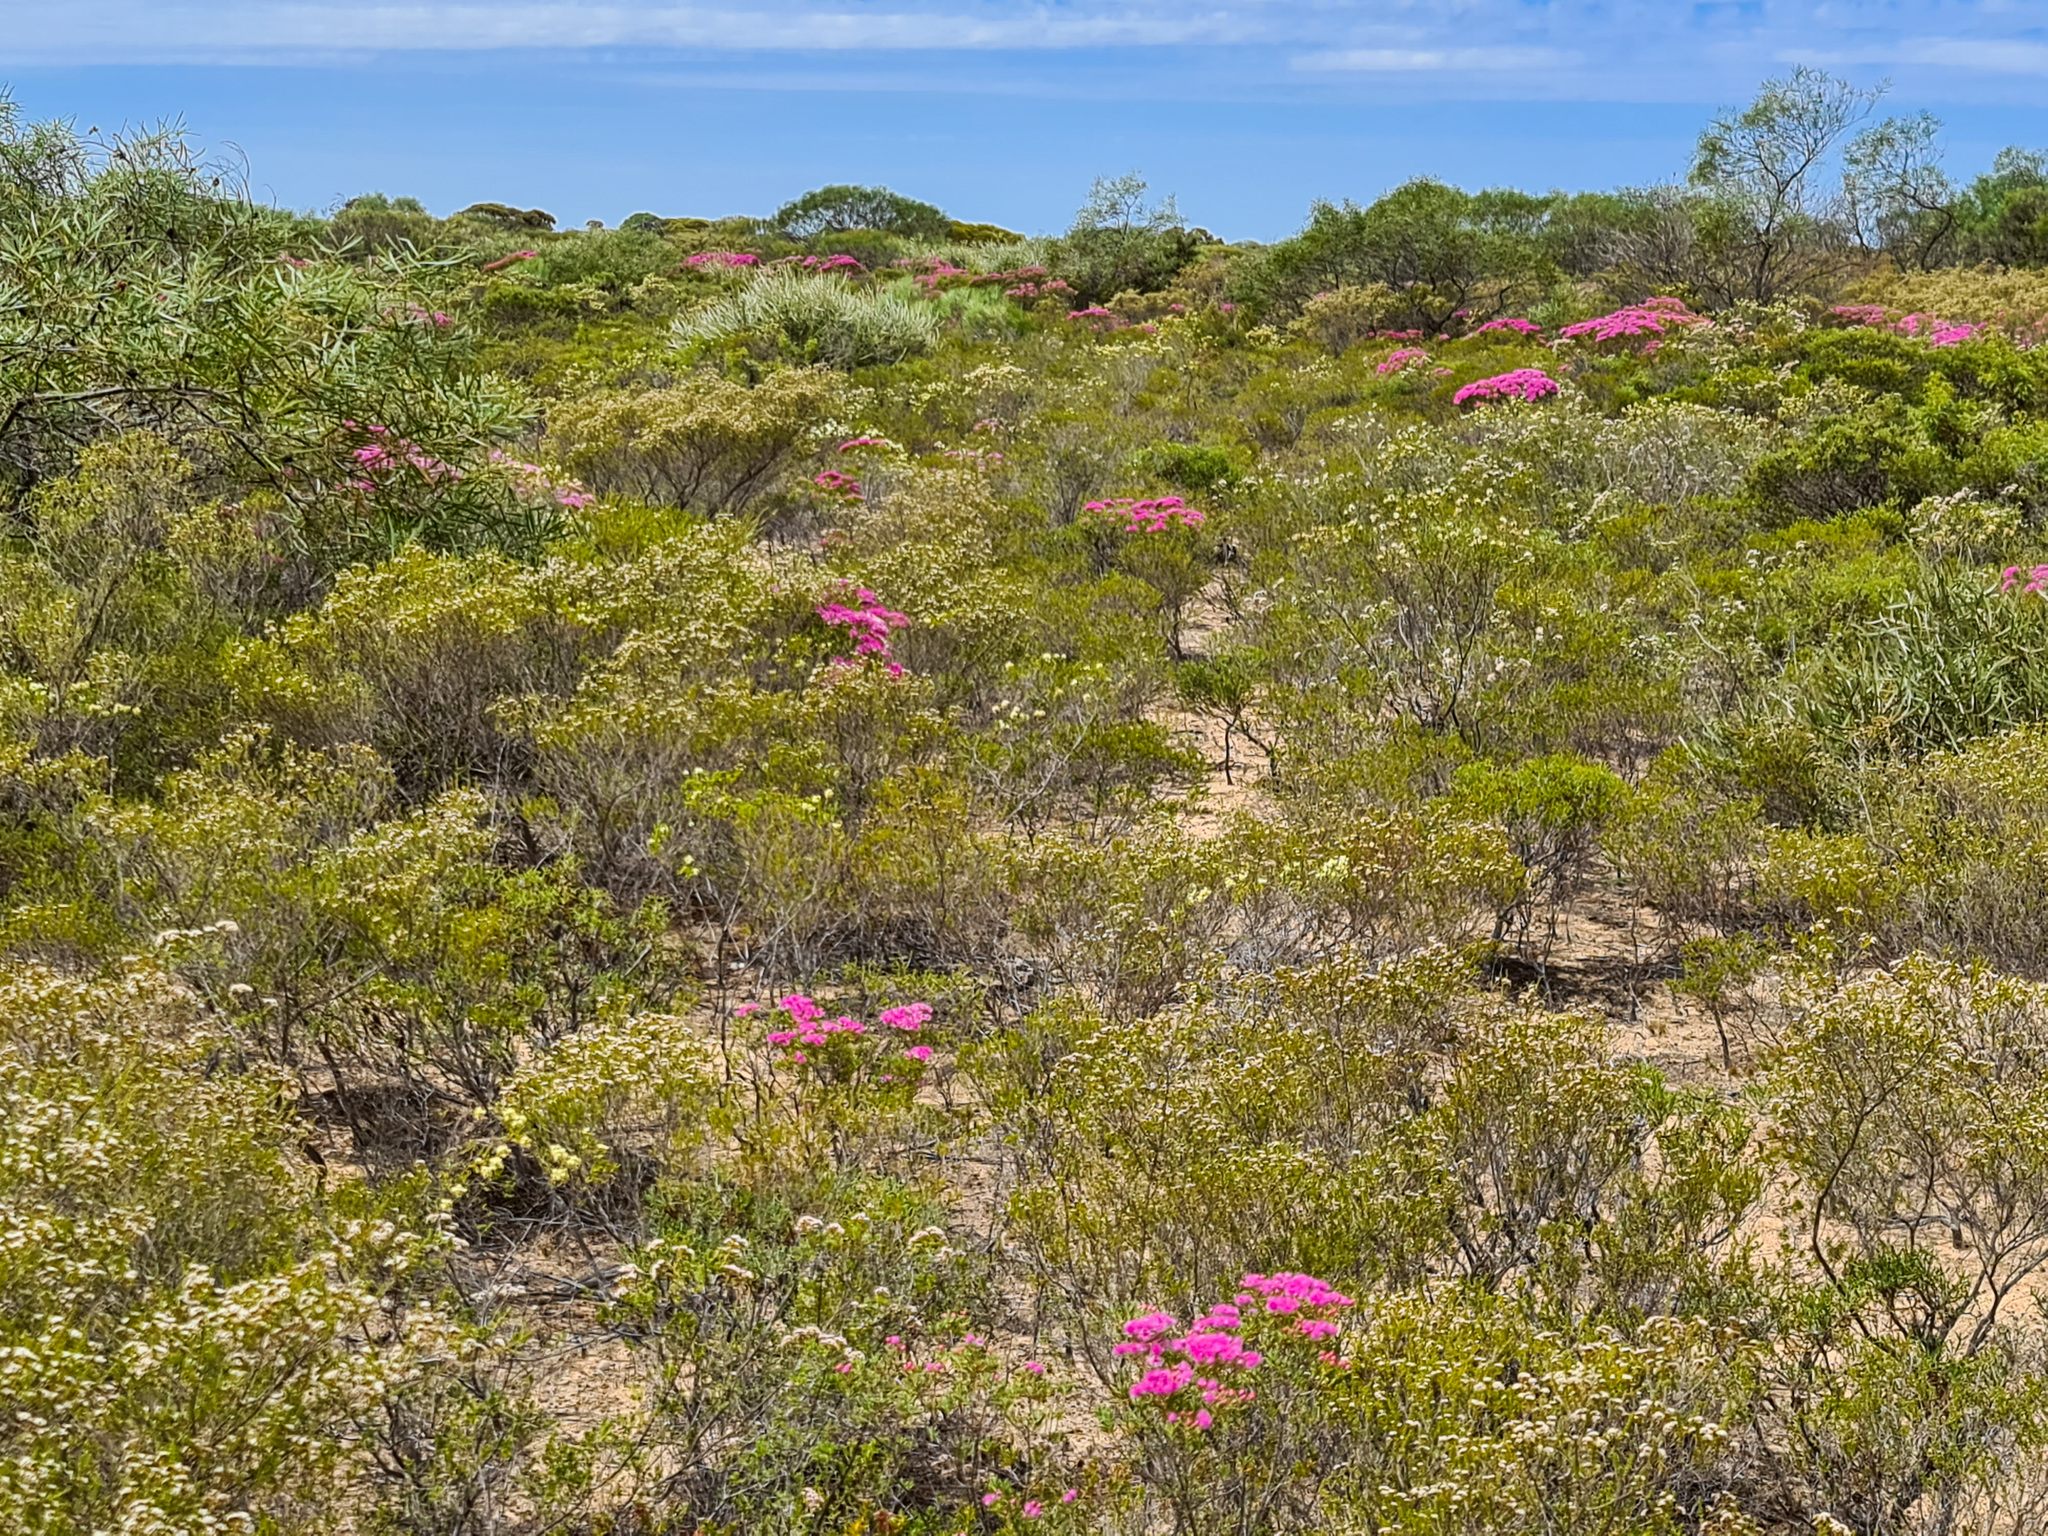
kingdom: Plantae
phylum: Tracheophyta
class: Magnoliopsida
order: Myrtales
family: Myrtaceae
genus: Verticordia
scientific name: Verticordia pholidophylla
